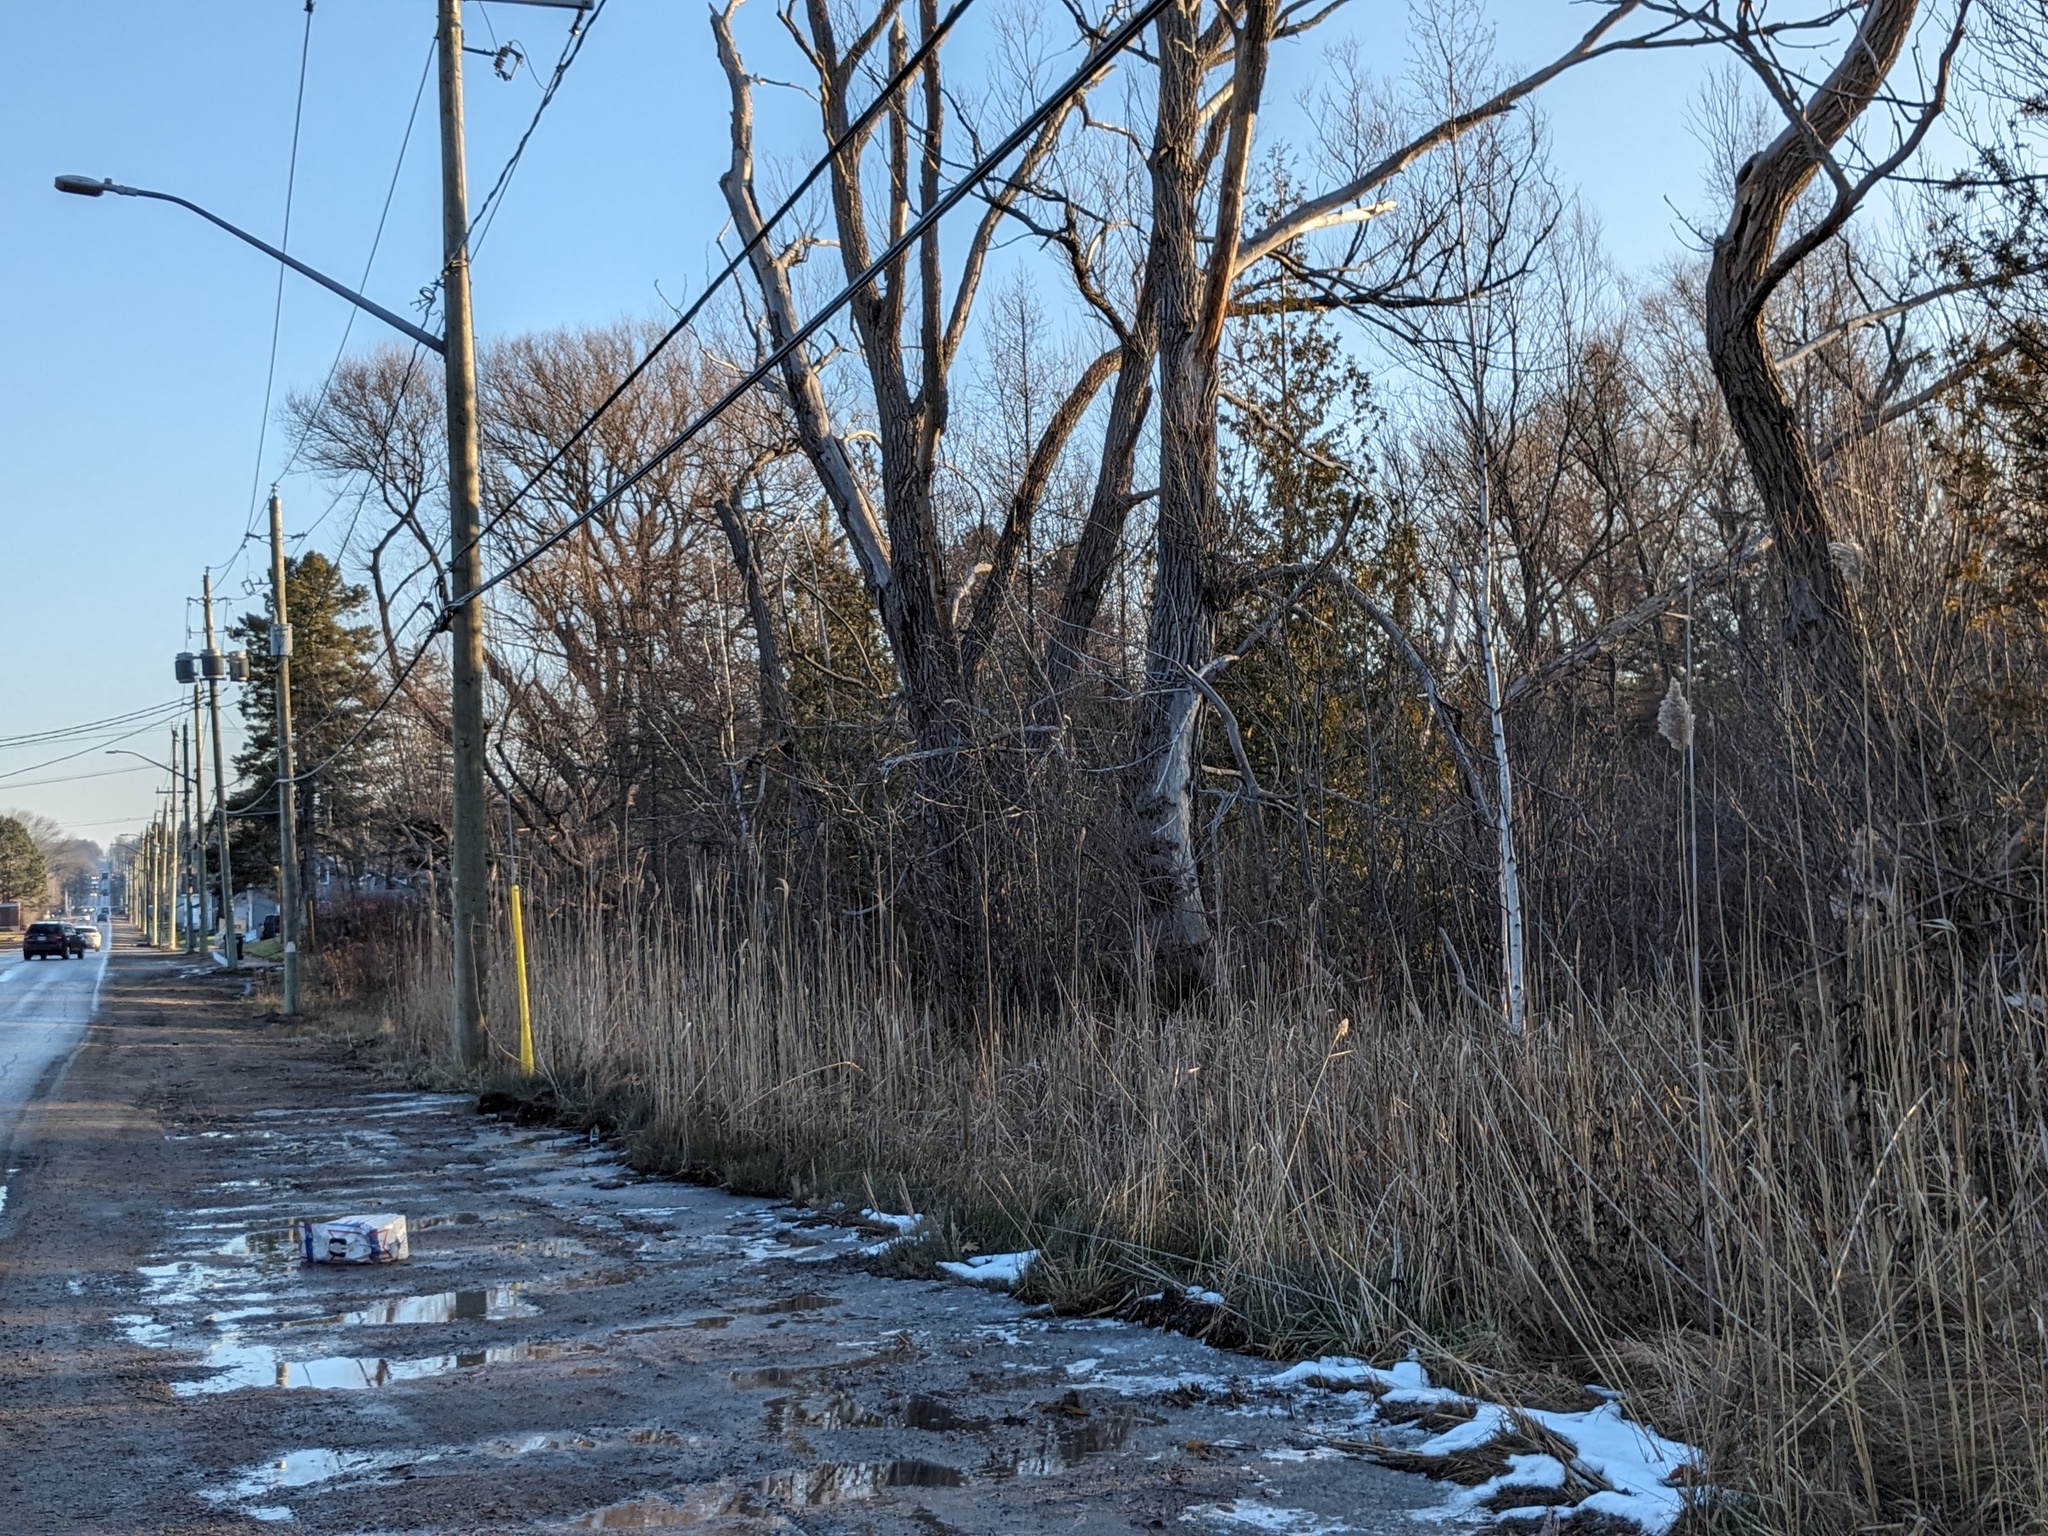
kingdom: Plantae
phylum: Tracheophyta
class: Liliopsida
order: Poales
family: Poaceae
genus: Phragmites
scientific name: Phragmites australis
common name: Common reed
